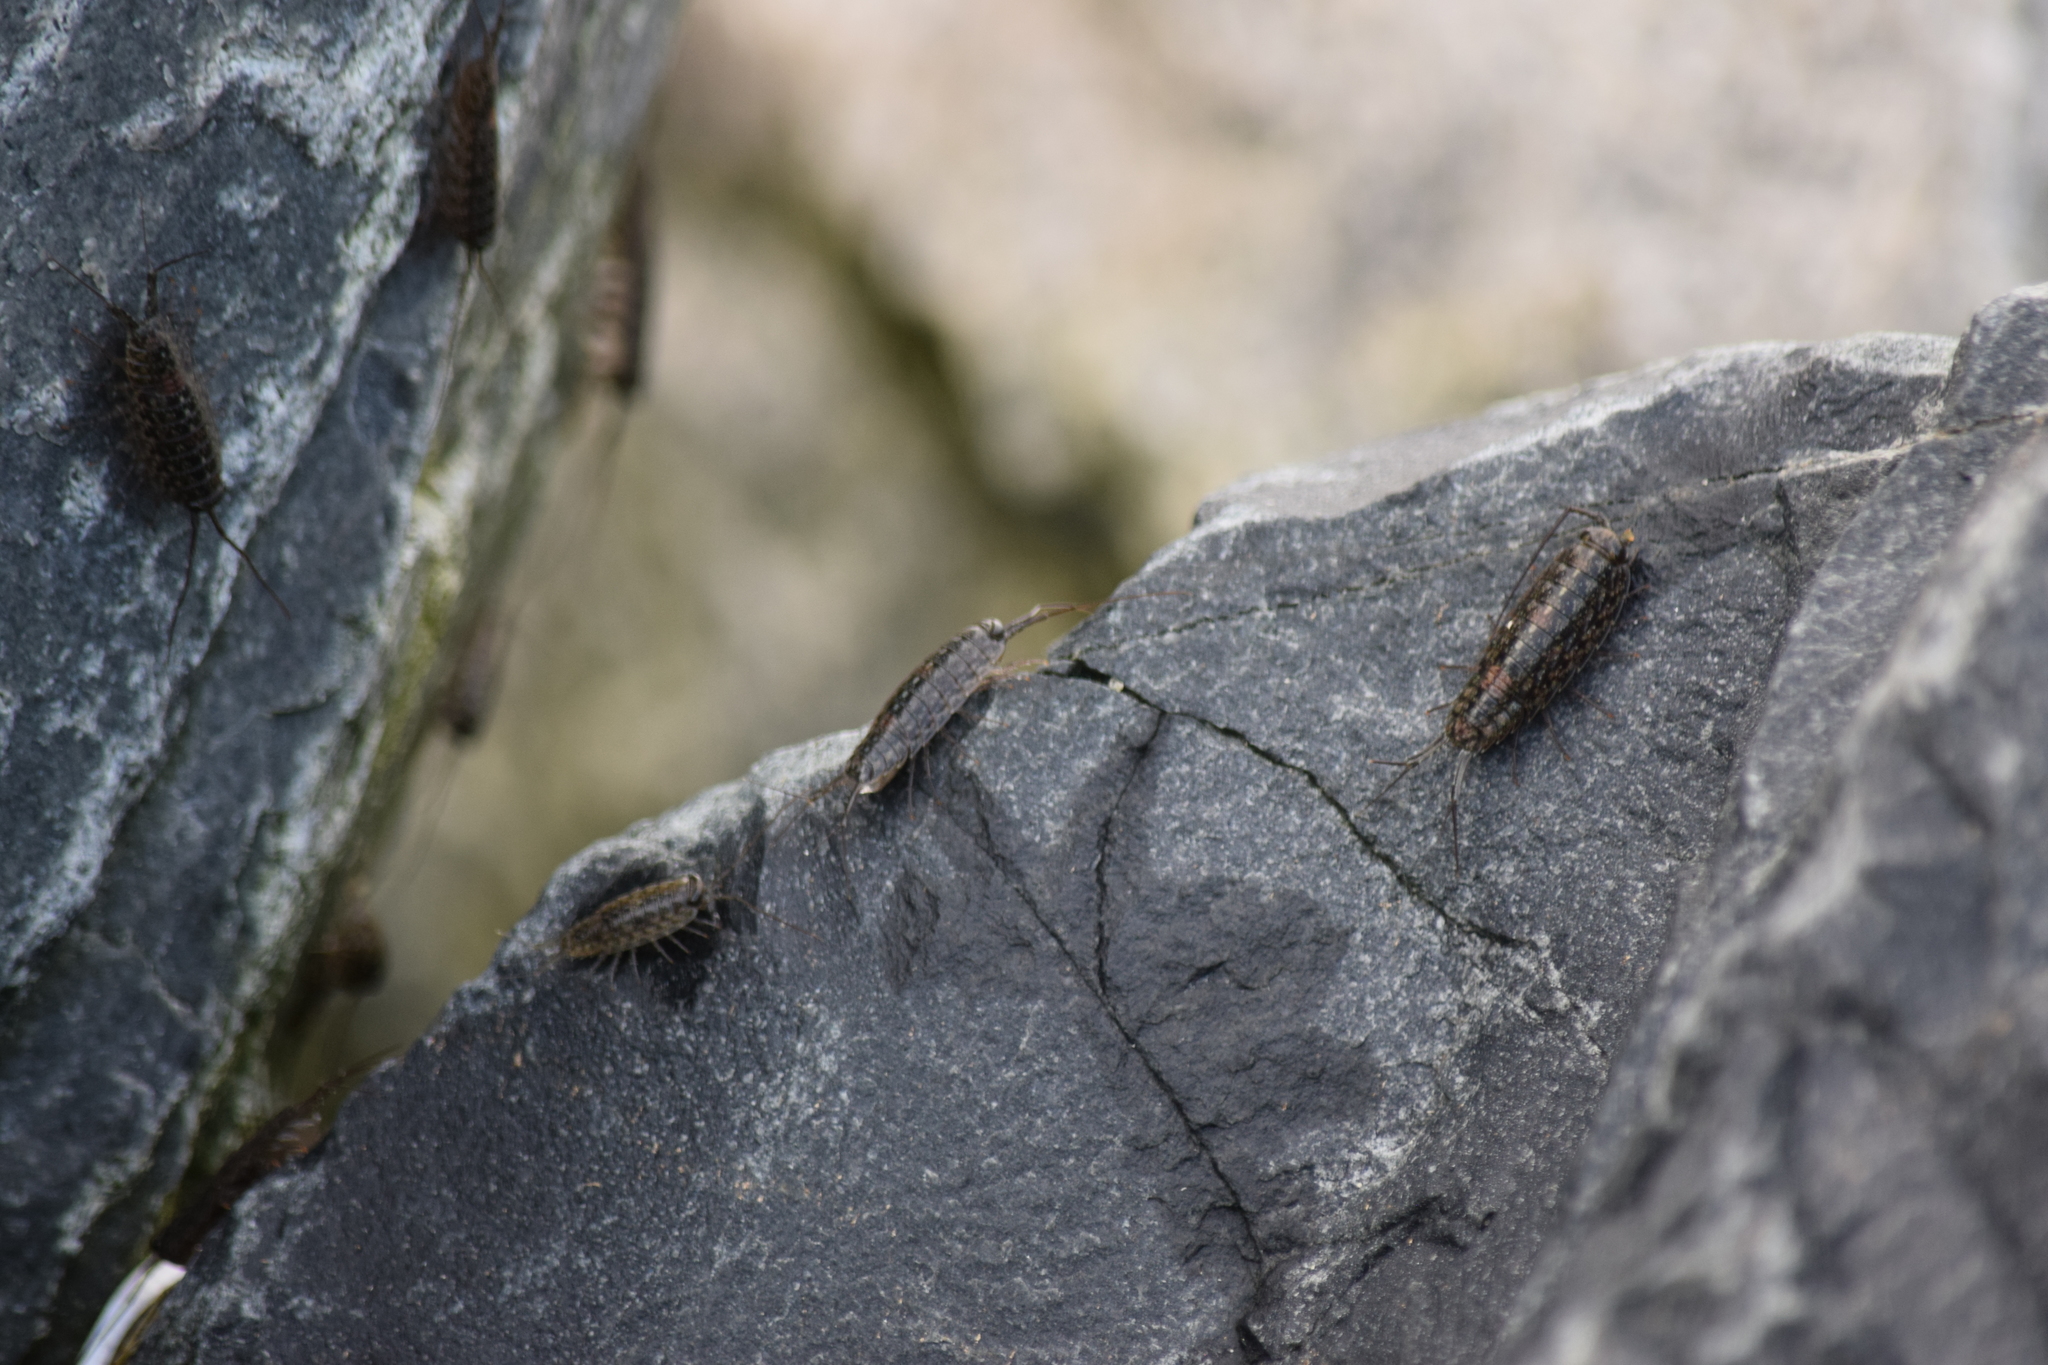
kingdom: Animalia
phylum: Arthropoda
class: Malacostraca
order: Isopoda
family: Ligiidae
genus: Ligia
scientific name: Ligia exotica
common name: Wharf roach
